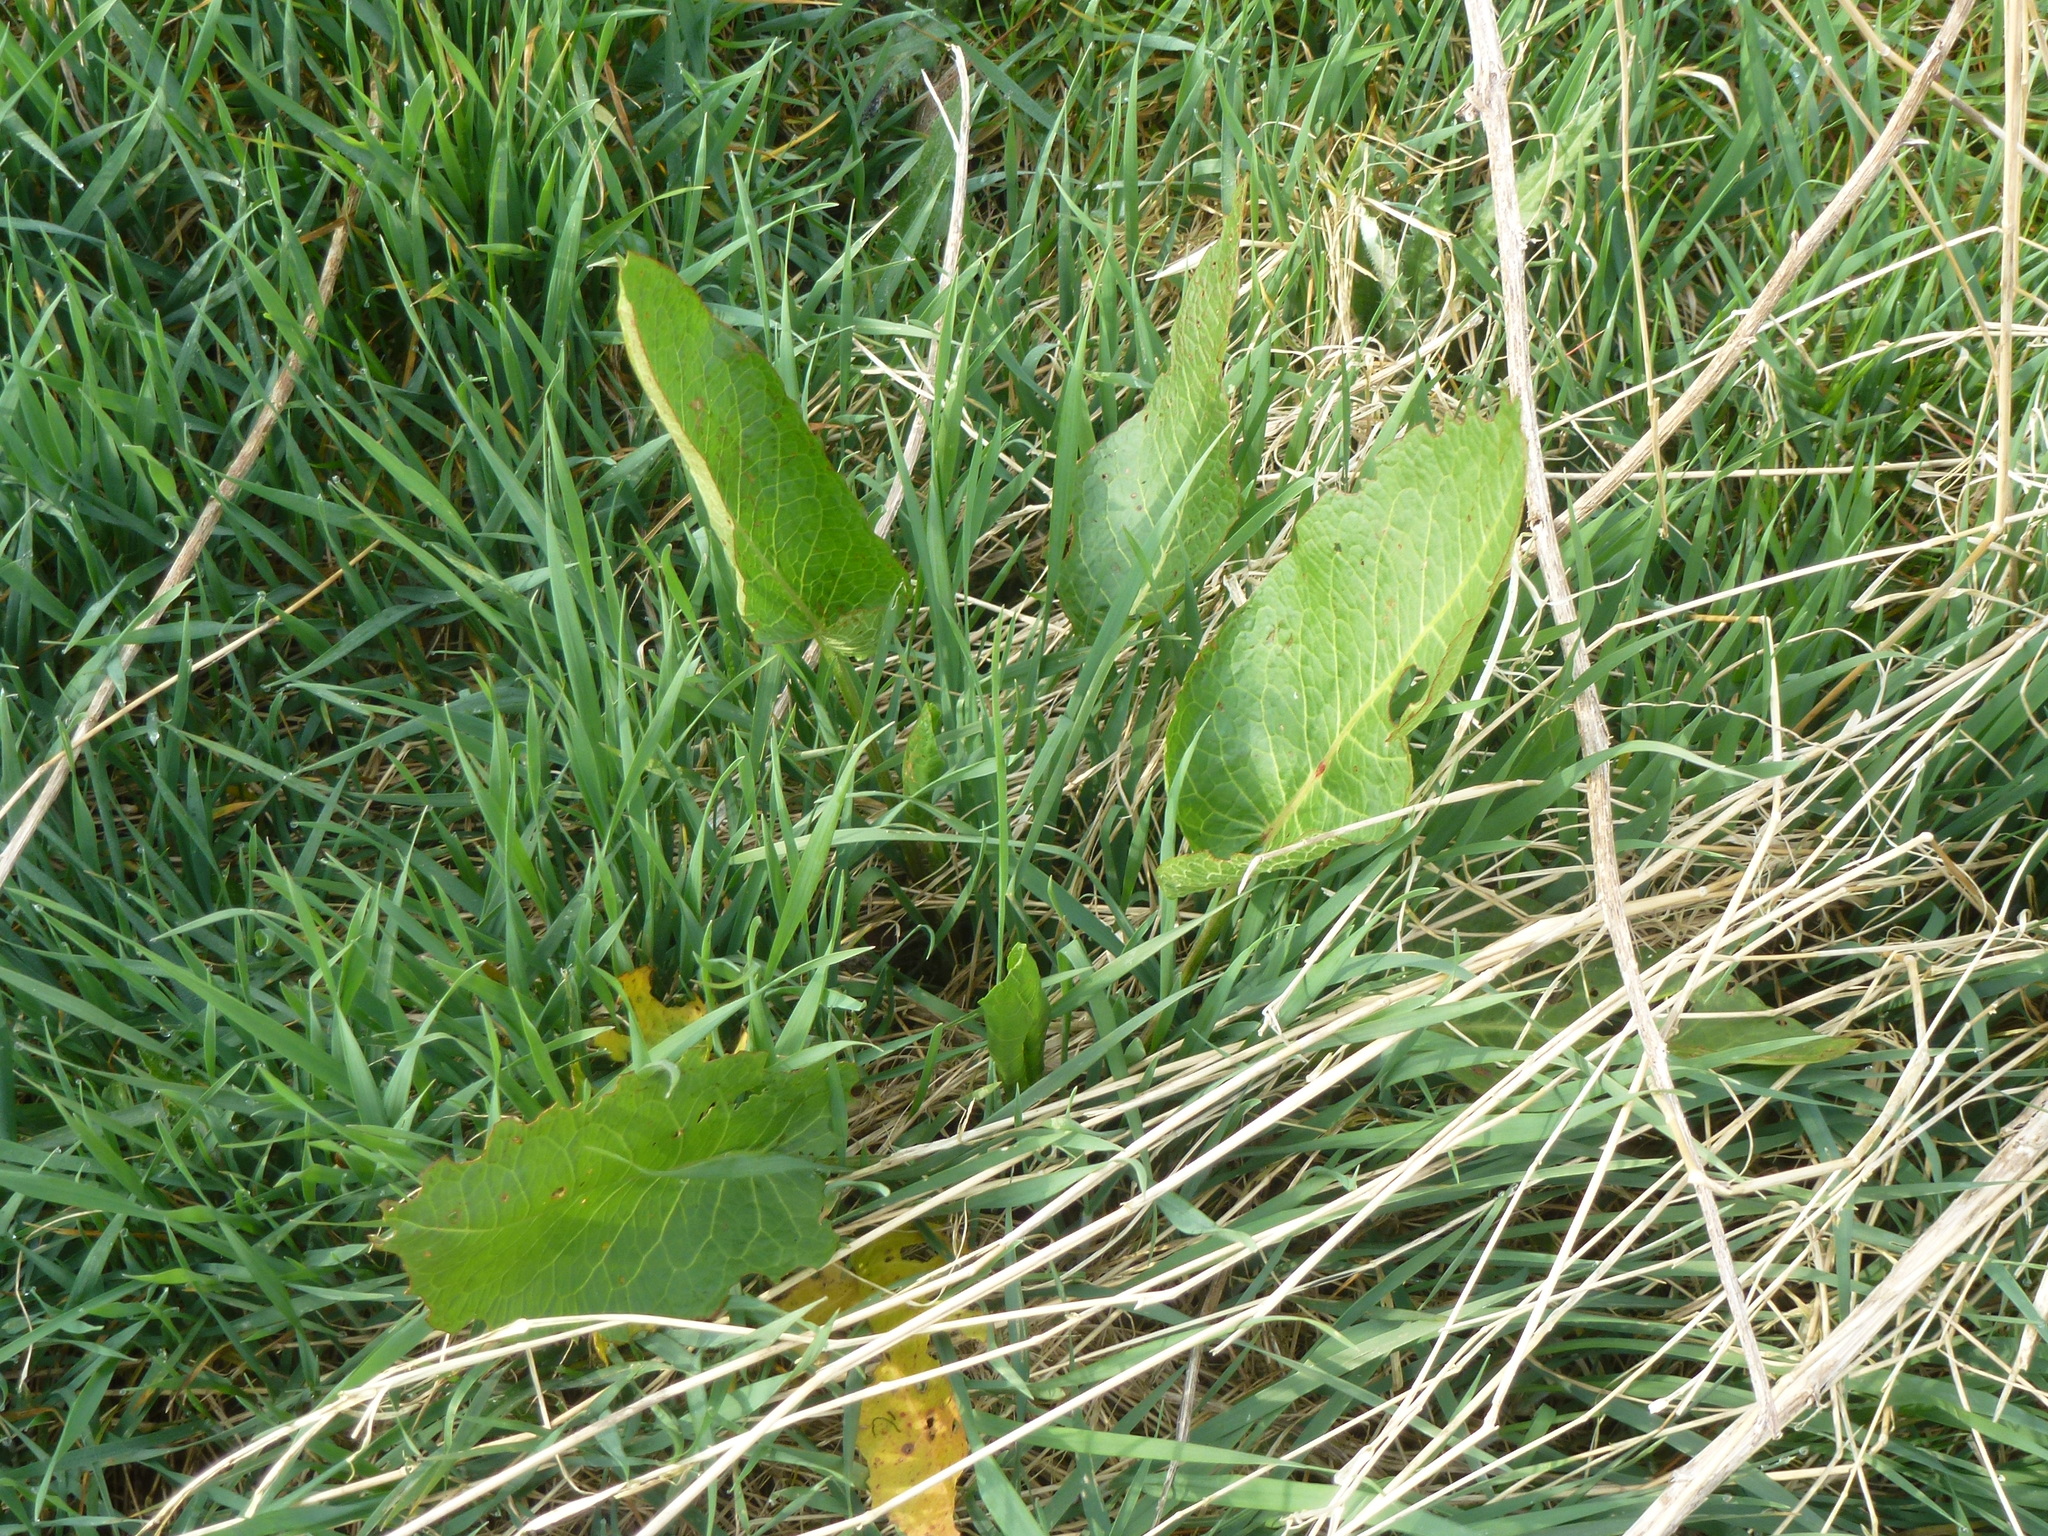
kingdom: Plantae
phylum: Tracheophyta
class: Magnoliopsida
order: Caryophyllales
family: Polygonaceae
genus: Rumex
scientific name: Rumex obtusifolius
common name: Bitter dock
